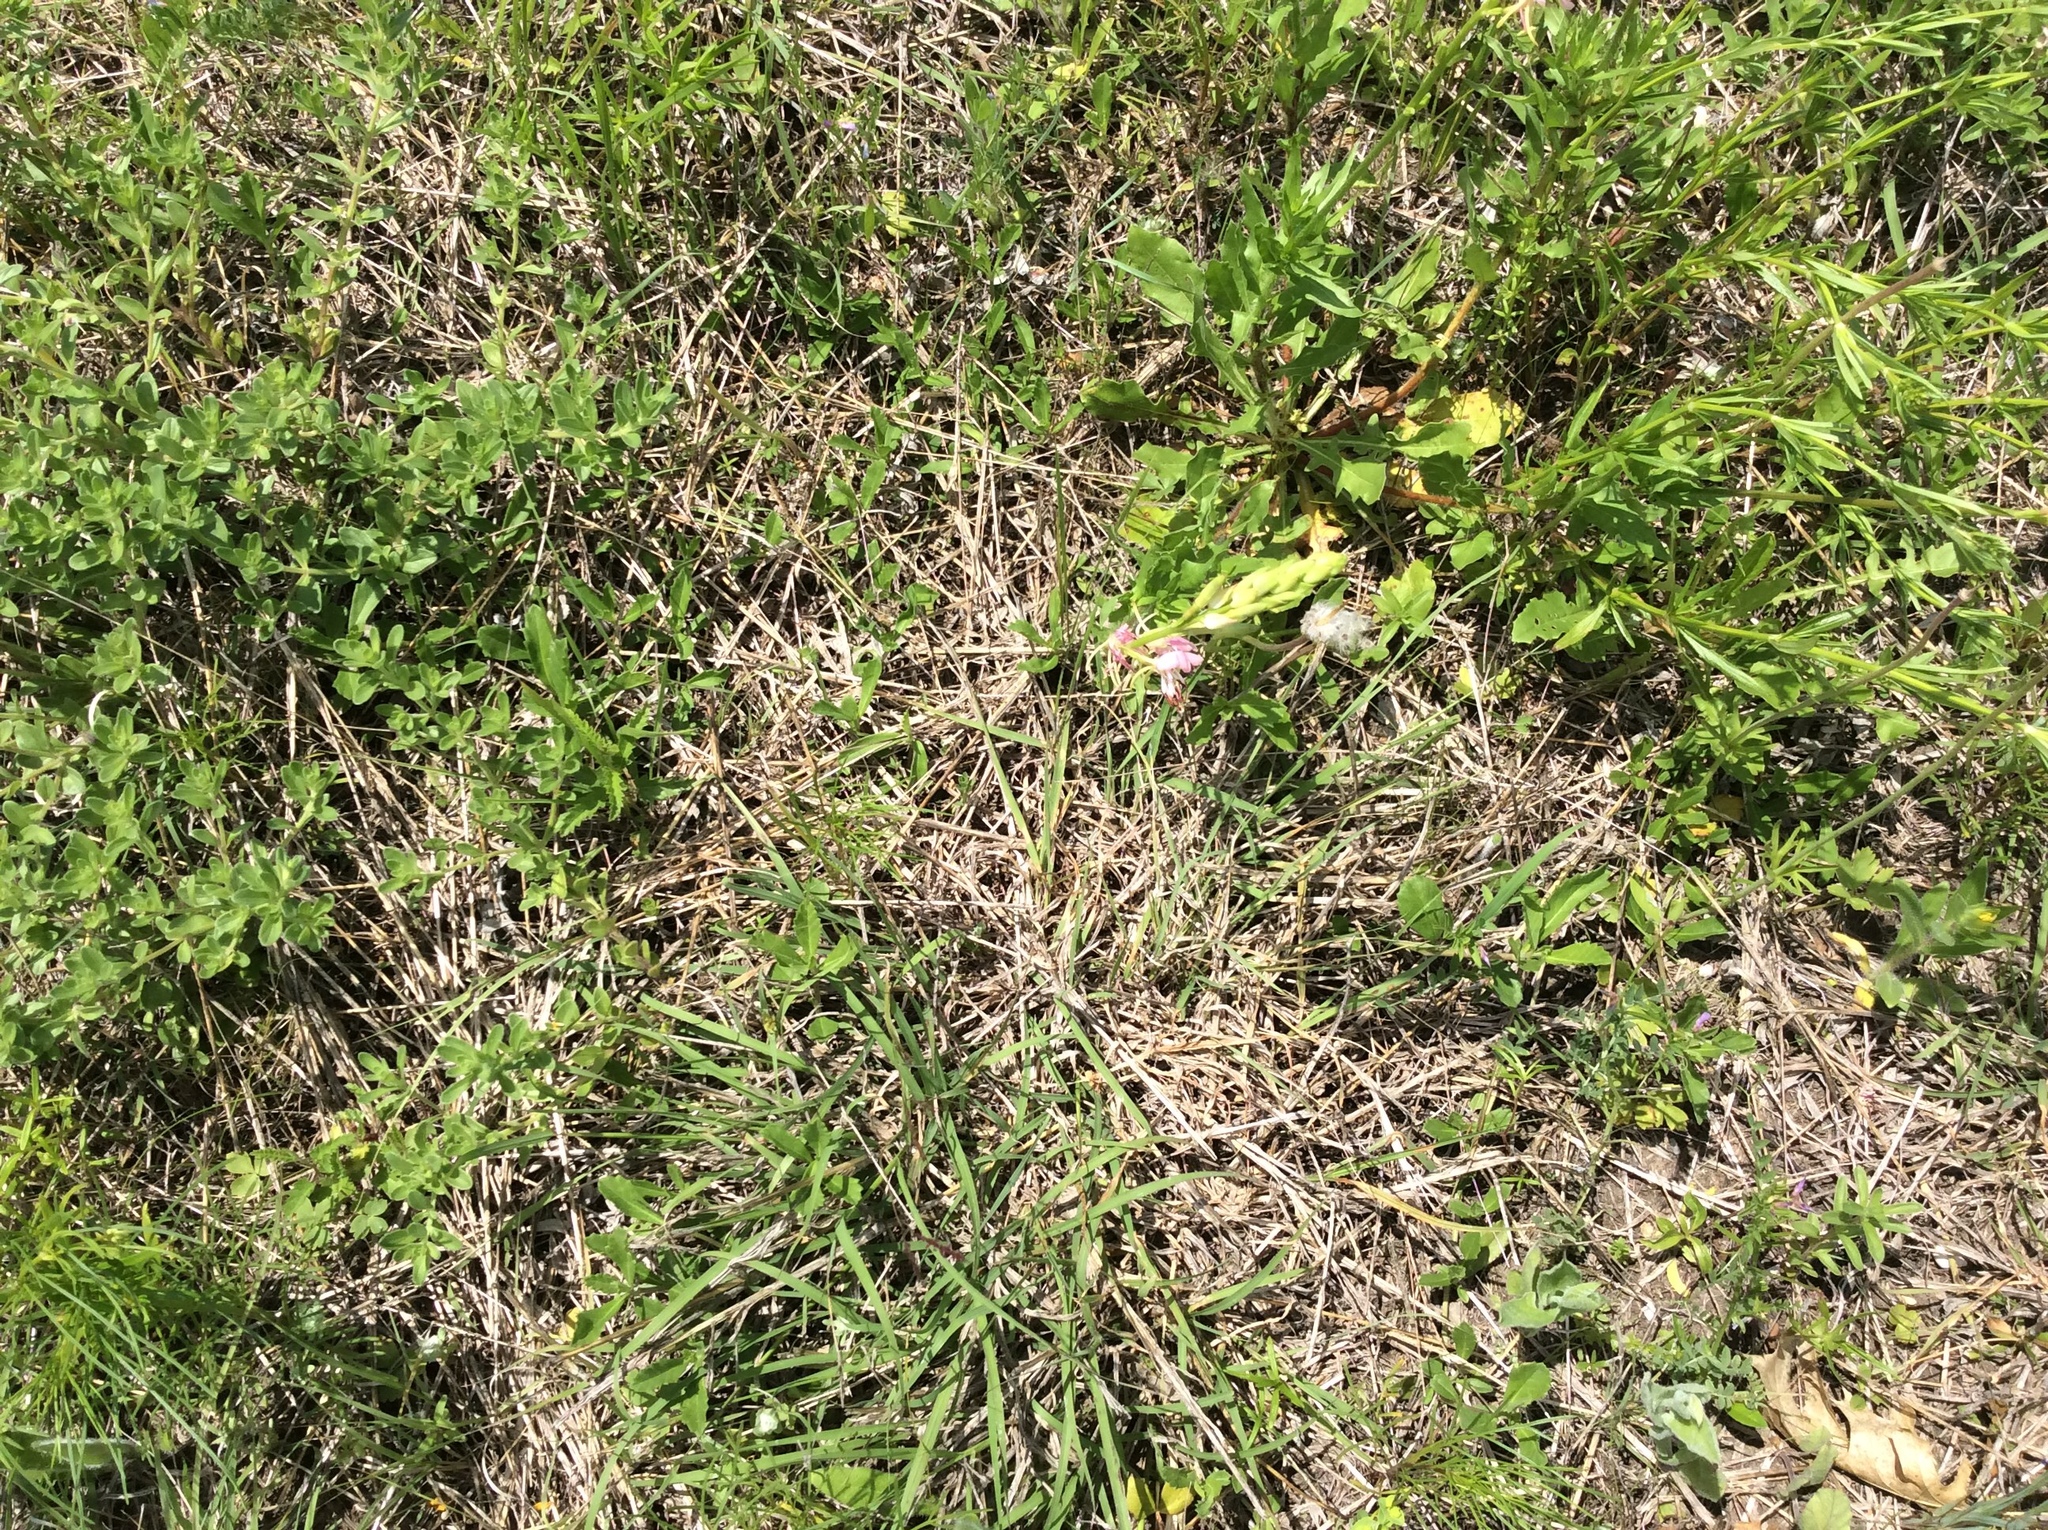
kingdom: Plantae
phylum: Tracheophyta
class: Magnoliopsida
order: Myrtales
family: Onagraceae
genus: Oenothera
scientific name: Oenothera suffulta
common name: Kisses
